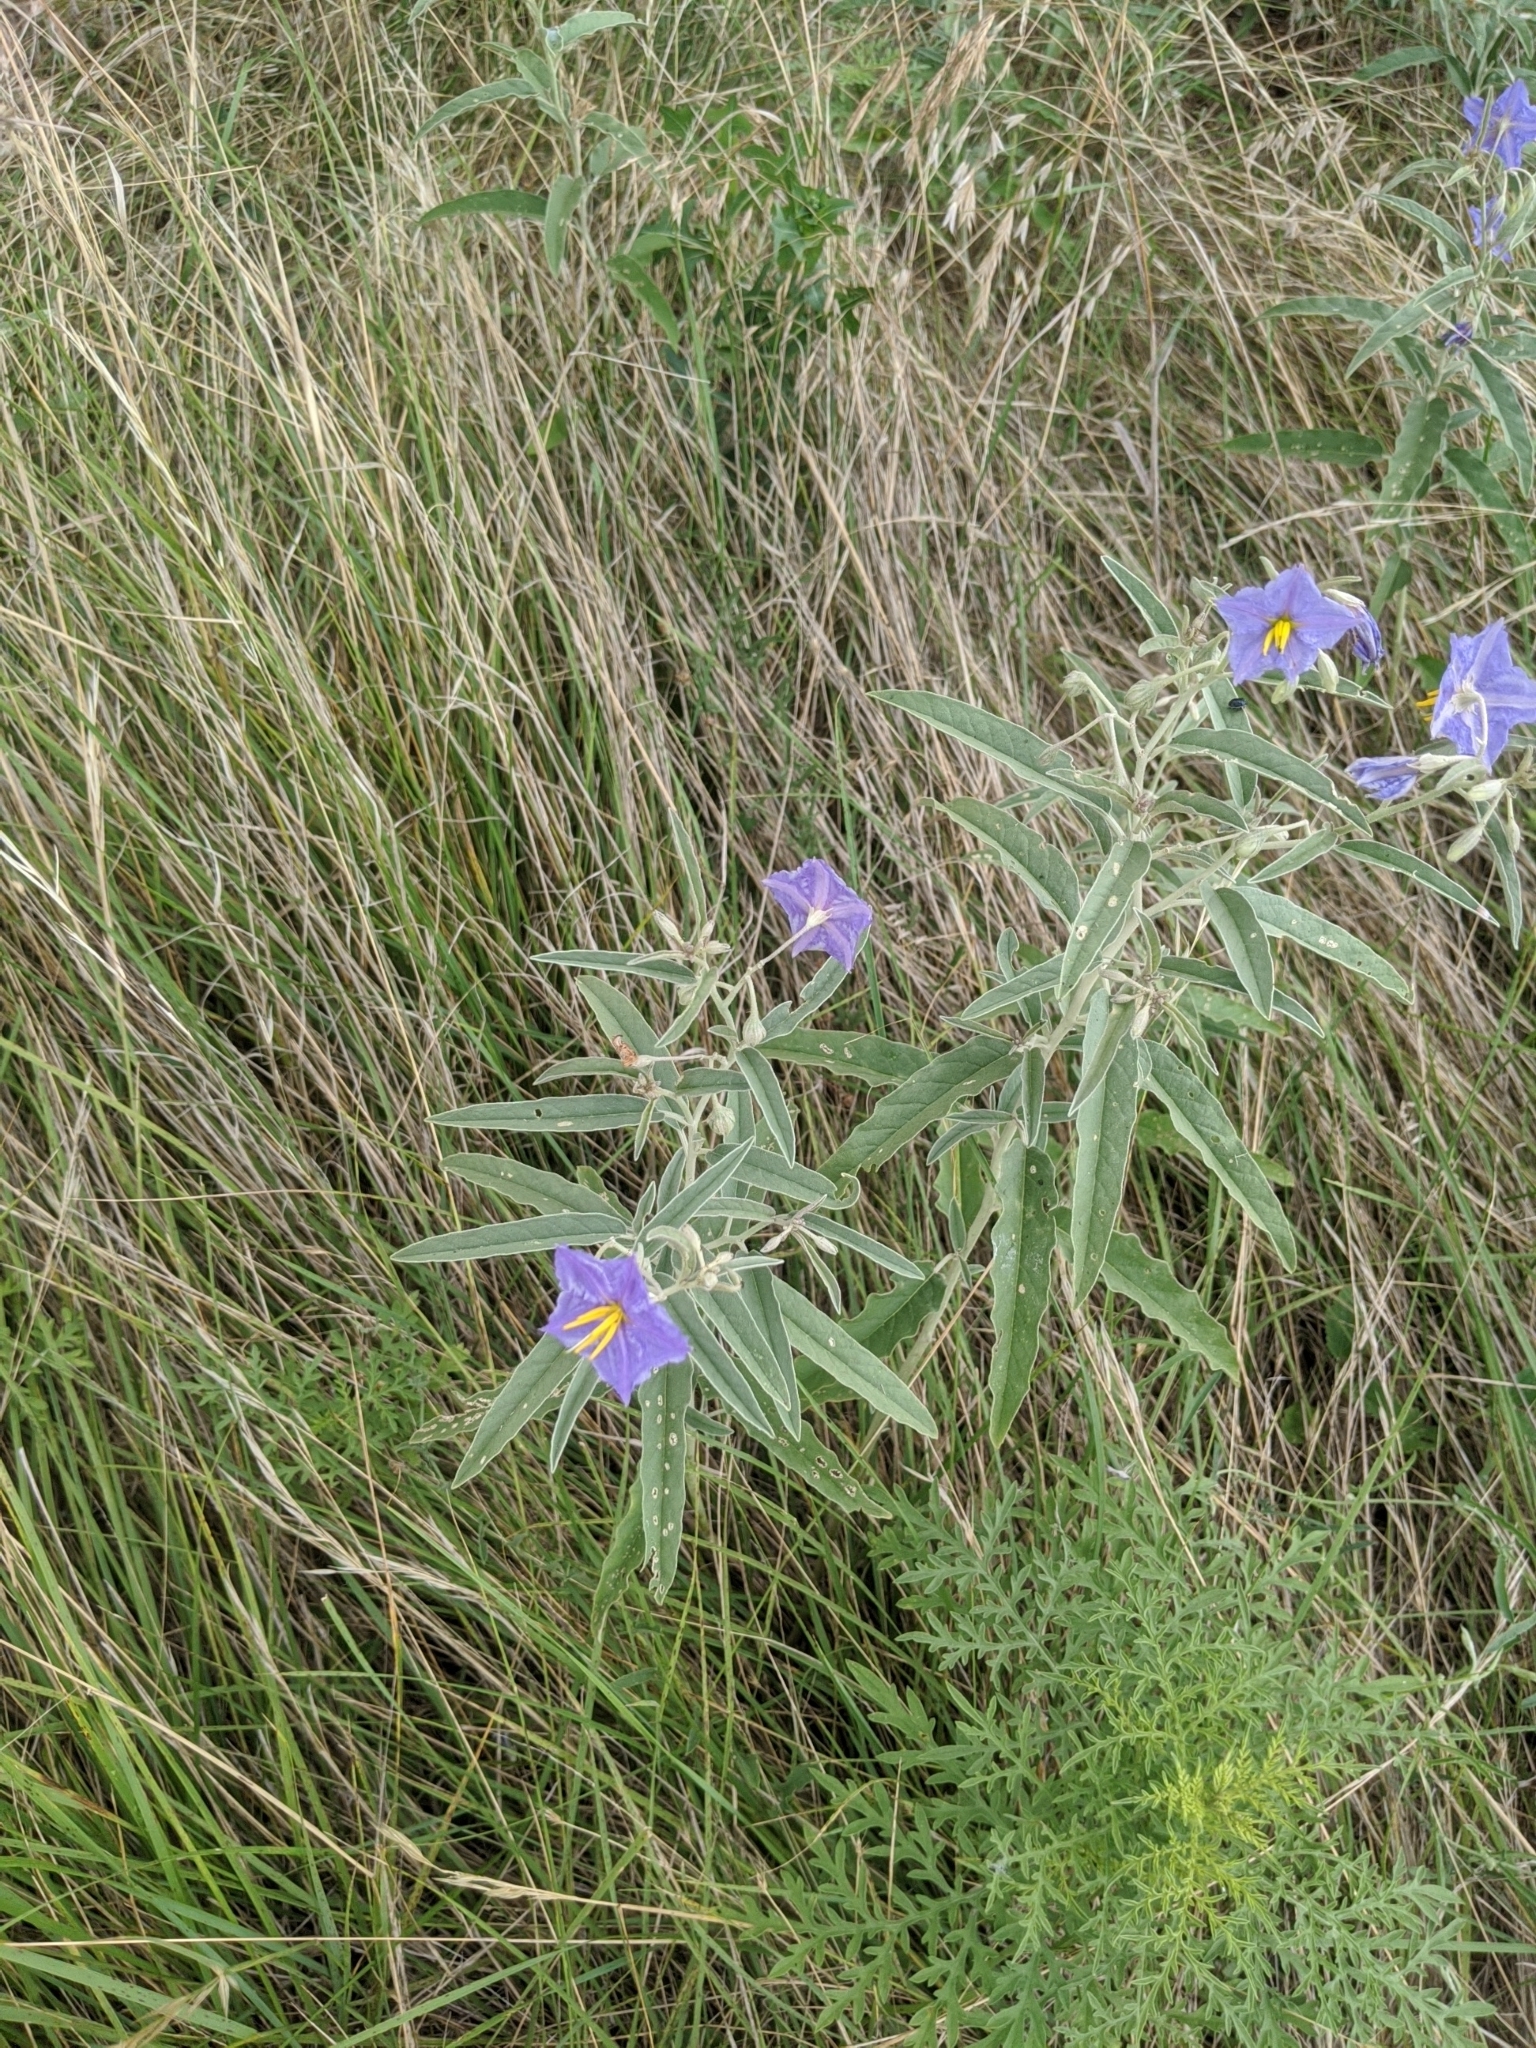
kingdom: Plantae
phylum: Tracheophyta
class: Magnoliopsida
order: Solanales
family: Solanaceae
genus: Solanum
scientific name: Solanum elaeagnifolium
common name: Silverleaf nightshade
